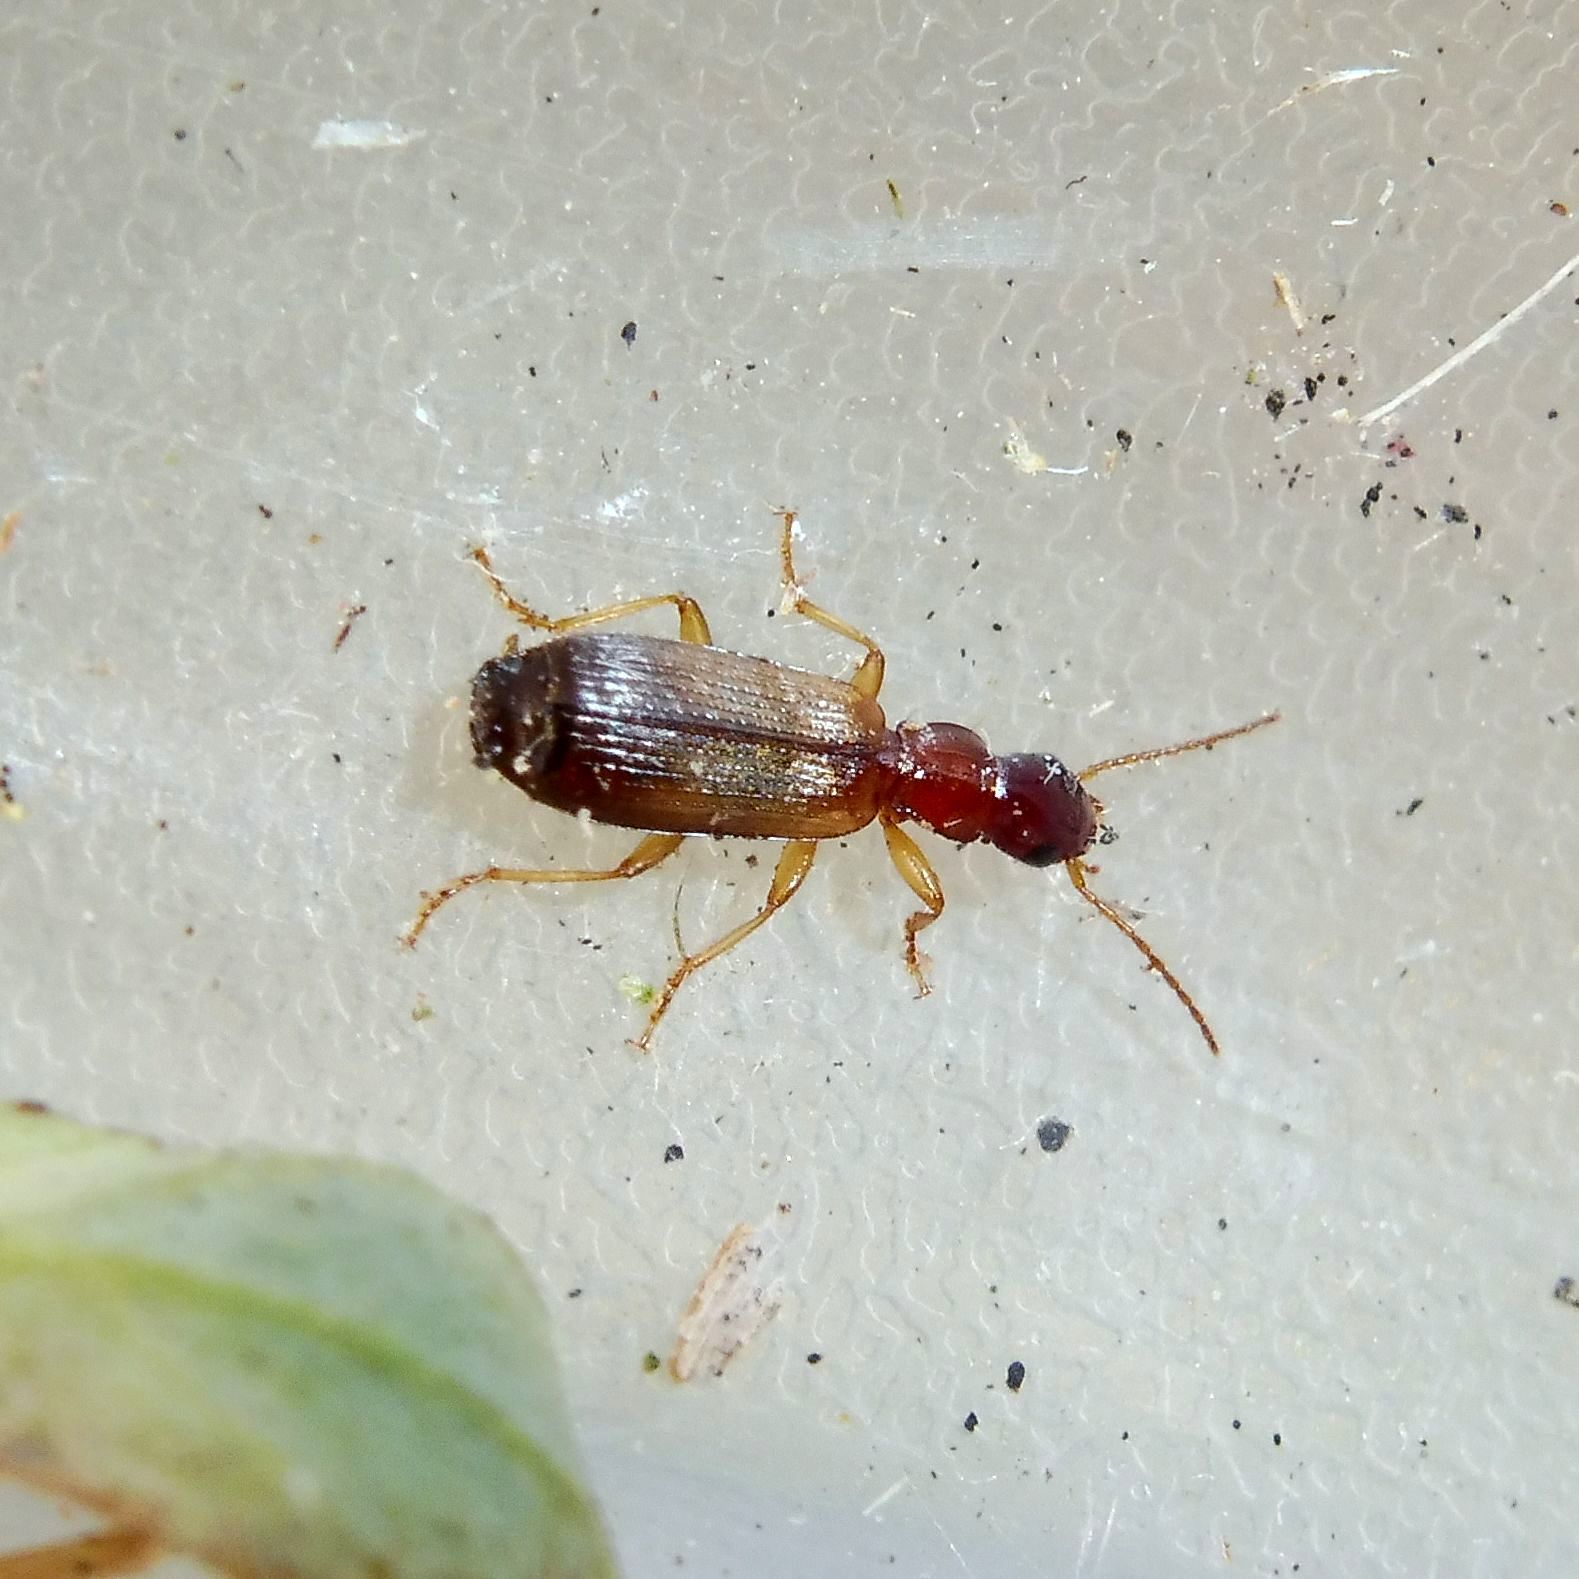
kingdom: Animalia
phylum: Arthropoda
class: Insecta
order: Coleoptera
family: Carabidae
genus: Paradromius
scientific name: Paradromius linearis
